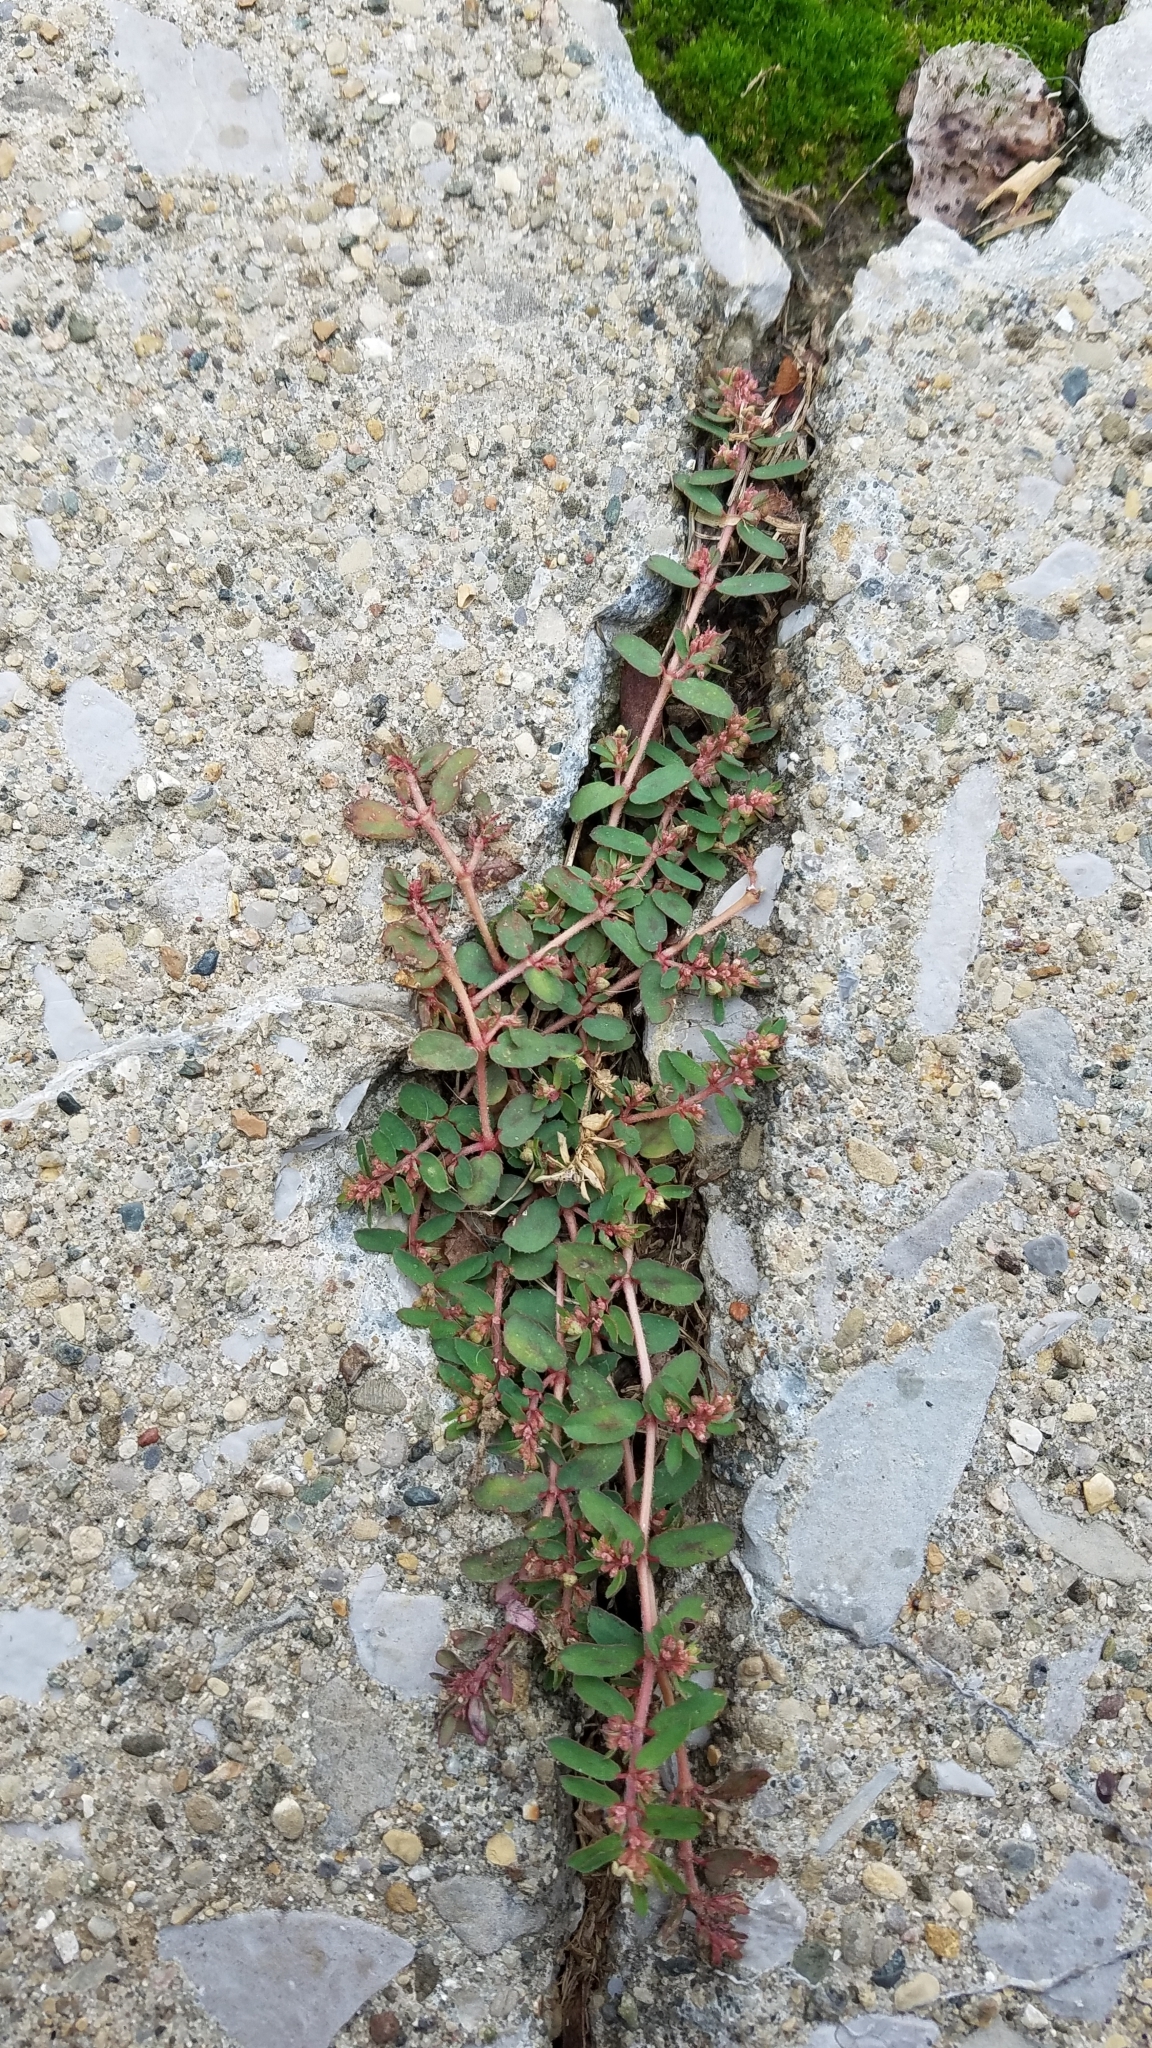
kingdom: Plantae
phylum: Tracheophyta
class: Magnoliopsida
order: Malpighiales
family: Euphorbiaceae
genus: Euphorbia
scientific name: Euphorbia maculata
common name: Spotted spurge
